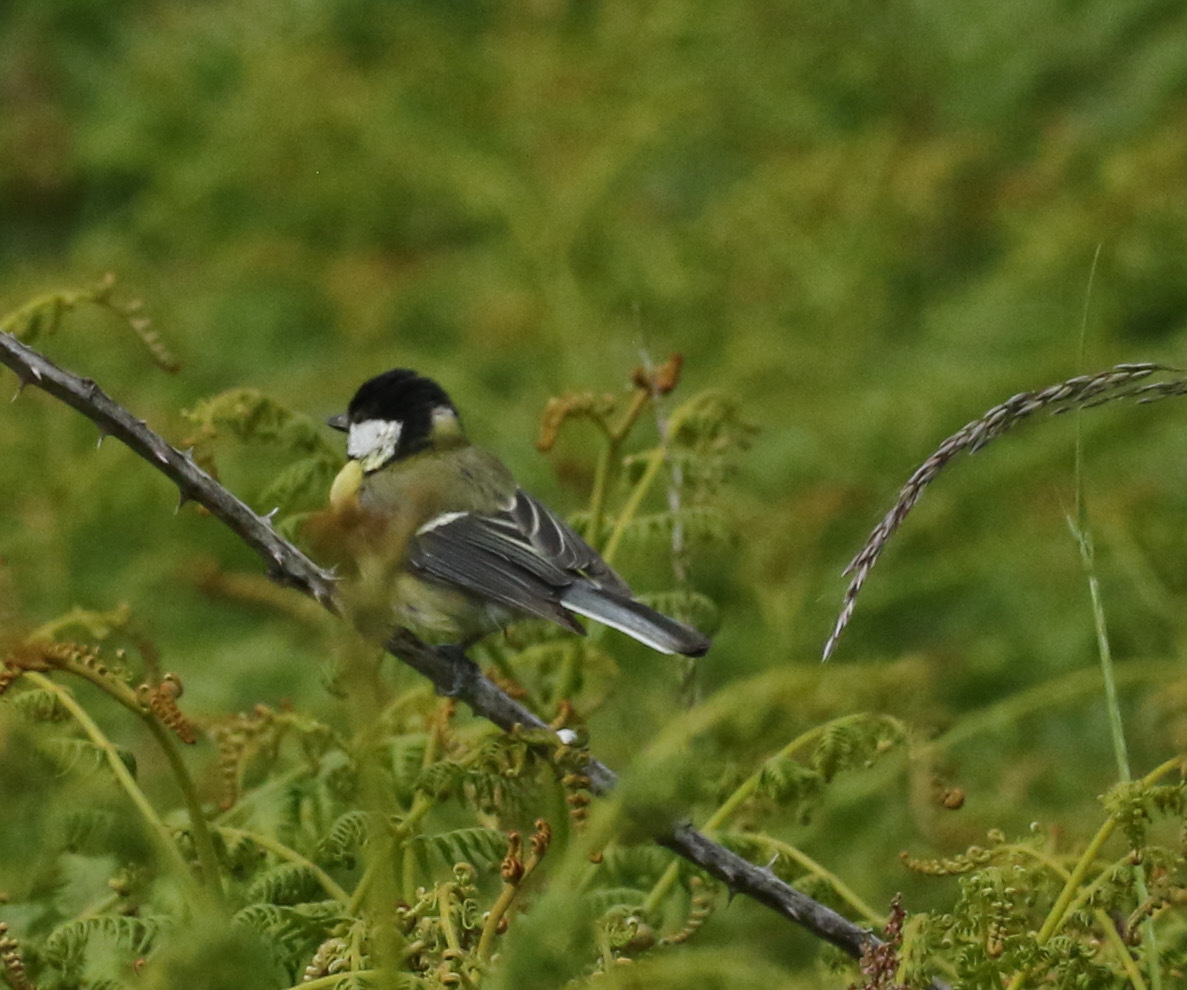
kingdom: Animalia
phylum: Chordata
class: Aves
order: Passeriformes
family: Paridae
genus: Parus
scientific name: Parus major
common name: Great tit
